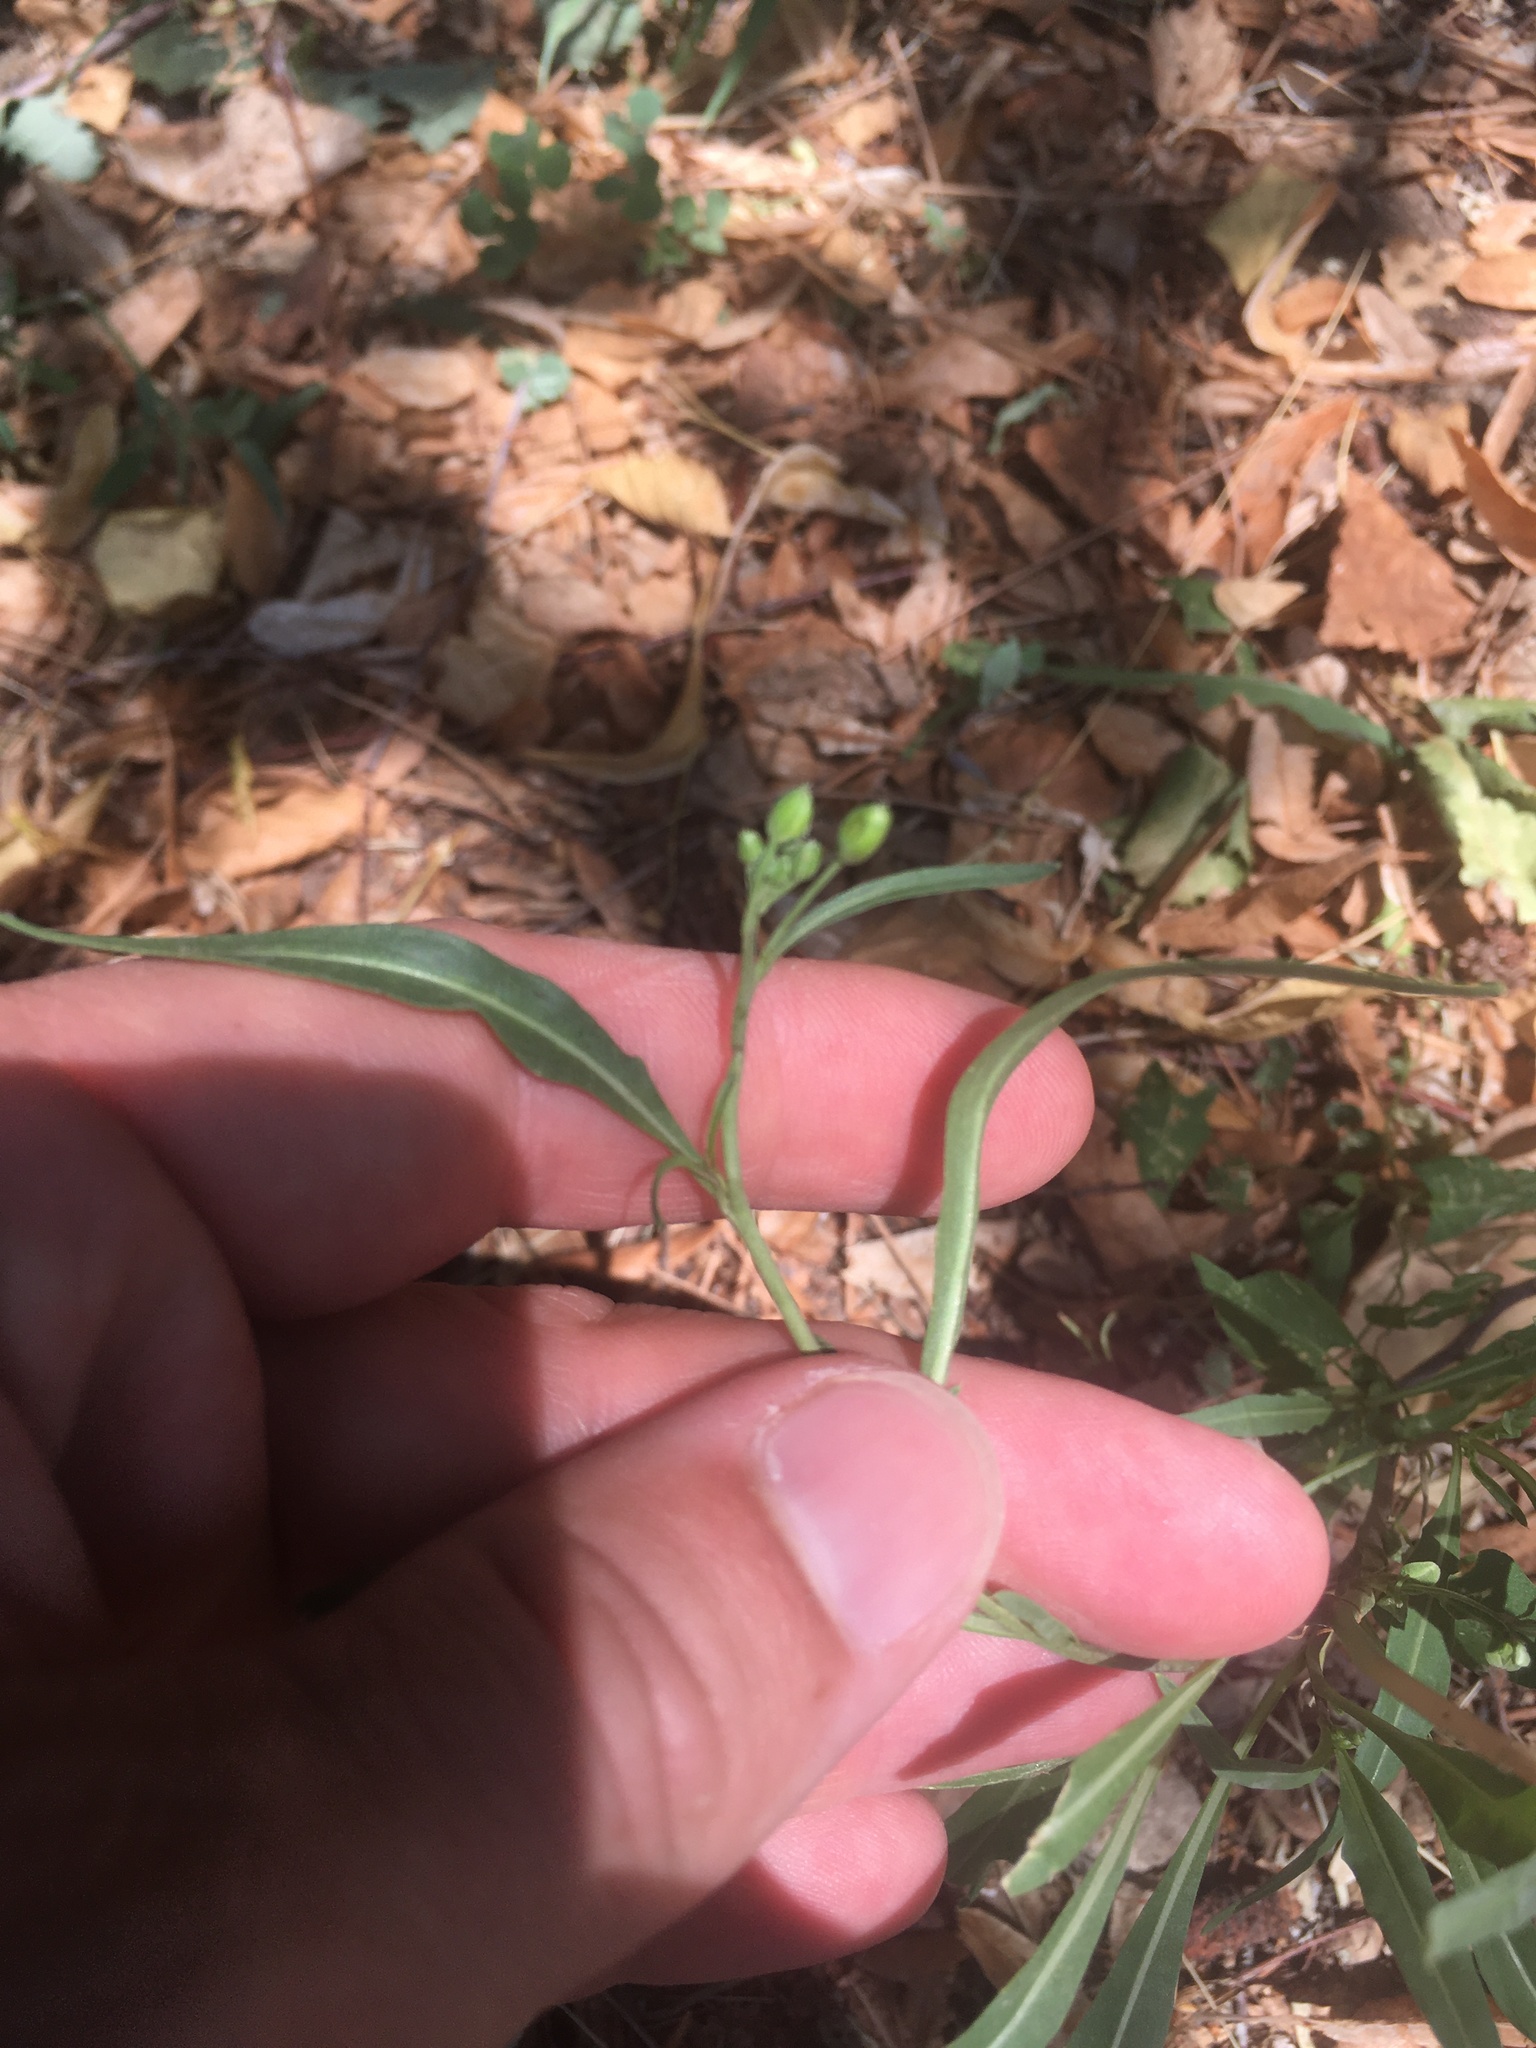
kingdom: Plantae
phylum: Tracheophyta
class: Magnoliopsida
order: Brassicales
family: Brassicaceae
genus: Diplotaxis
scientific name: Diplotaxis tenuifolia
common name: Perennial wall-rocket
